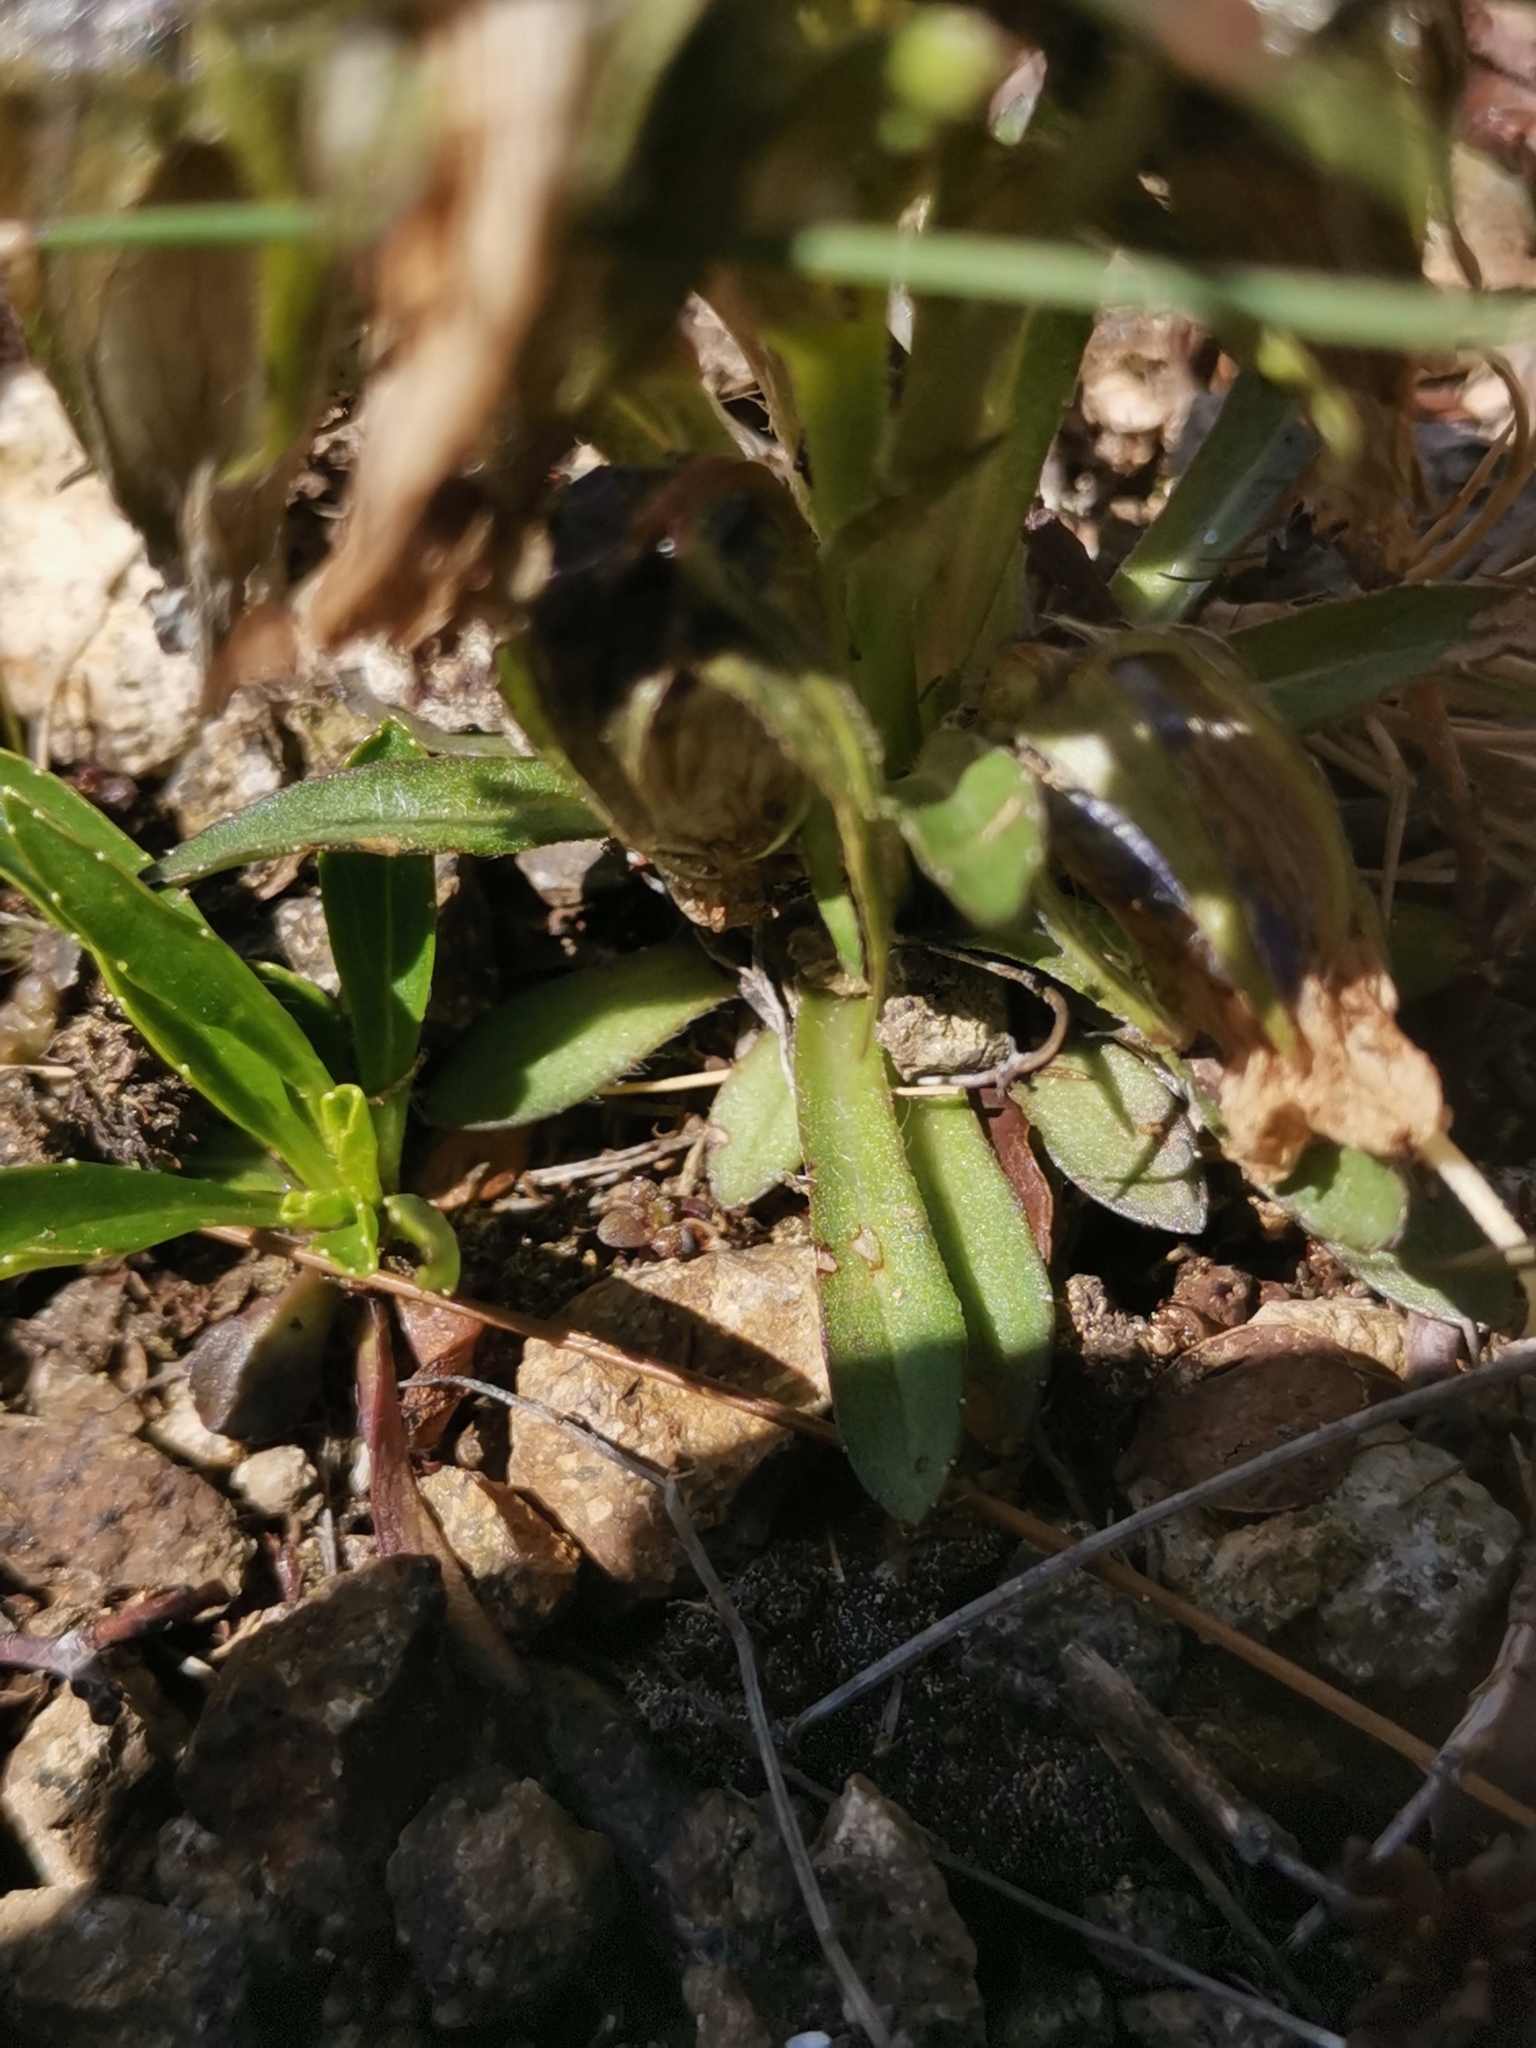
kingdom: Plantae
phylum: Tracheophyta
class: Magnoliopsida
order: Asterales
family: Campanulaceae
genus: Campanula
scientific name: Campanula alpina
